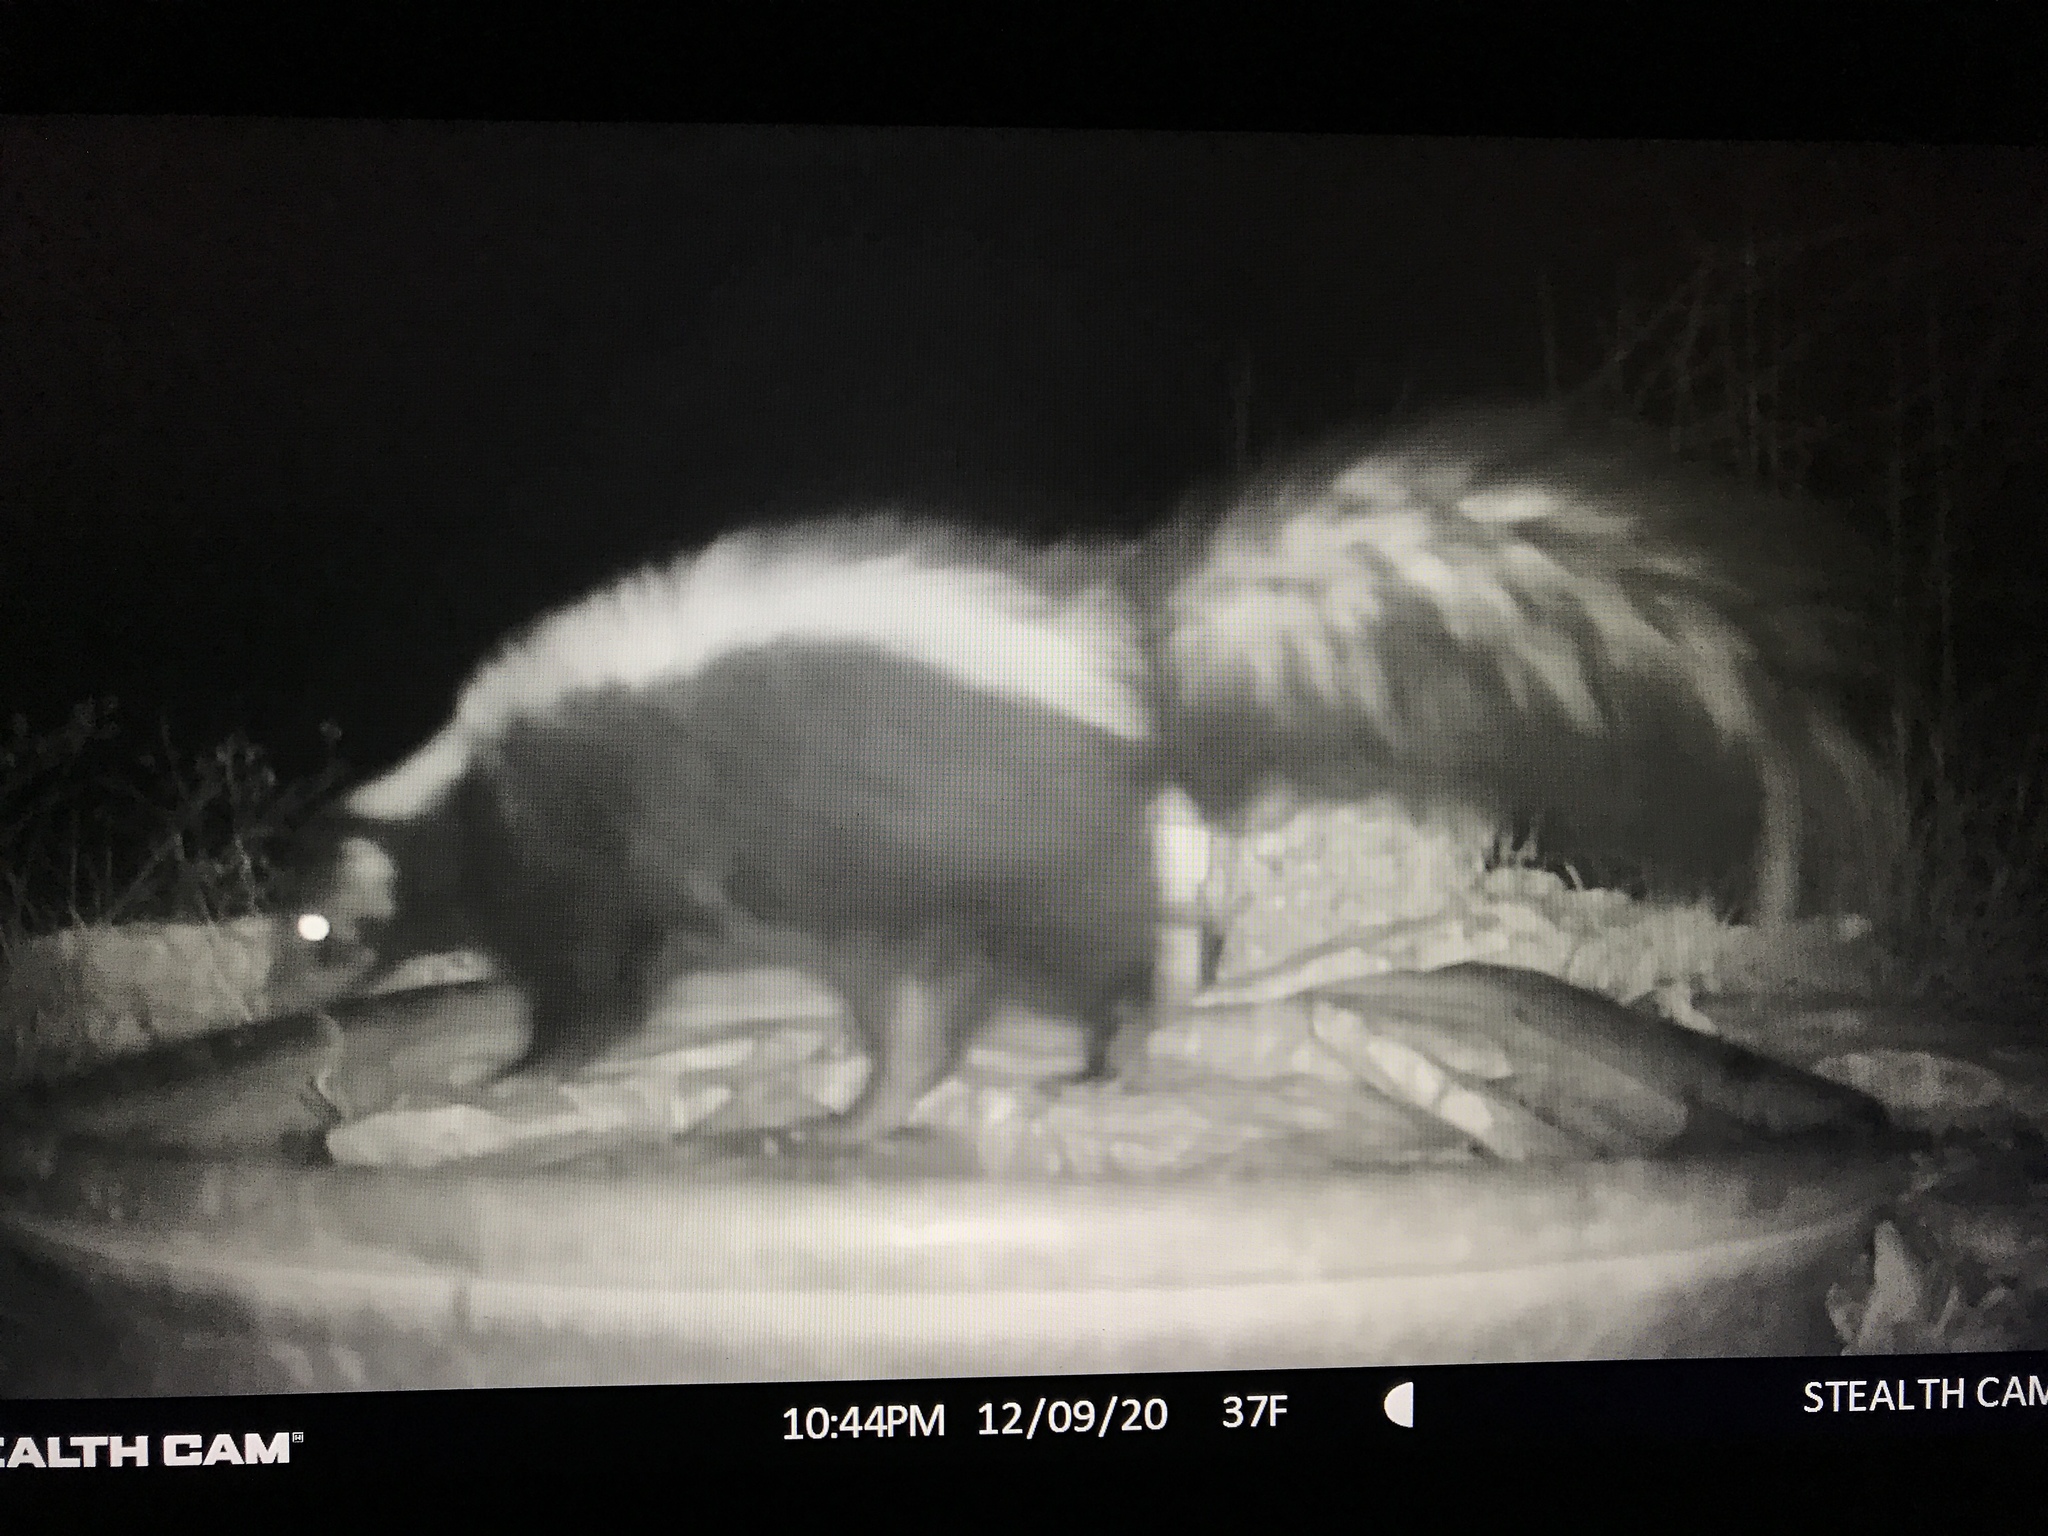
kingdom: Animalia
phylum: Chordata
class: Mammalia
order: Carnivora
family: Mephitidae
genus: Mephitis
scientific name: Mephitis mephitis
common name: Striped skunk
